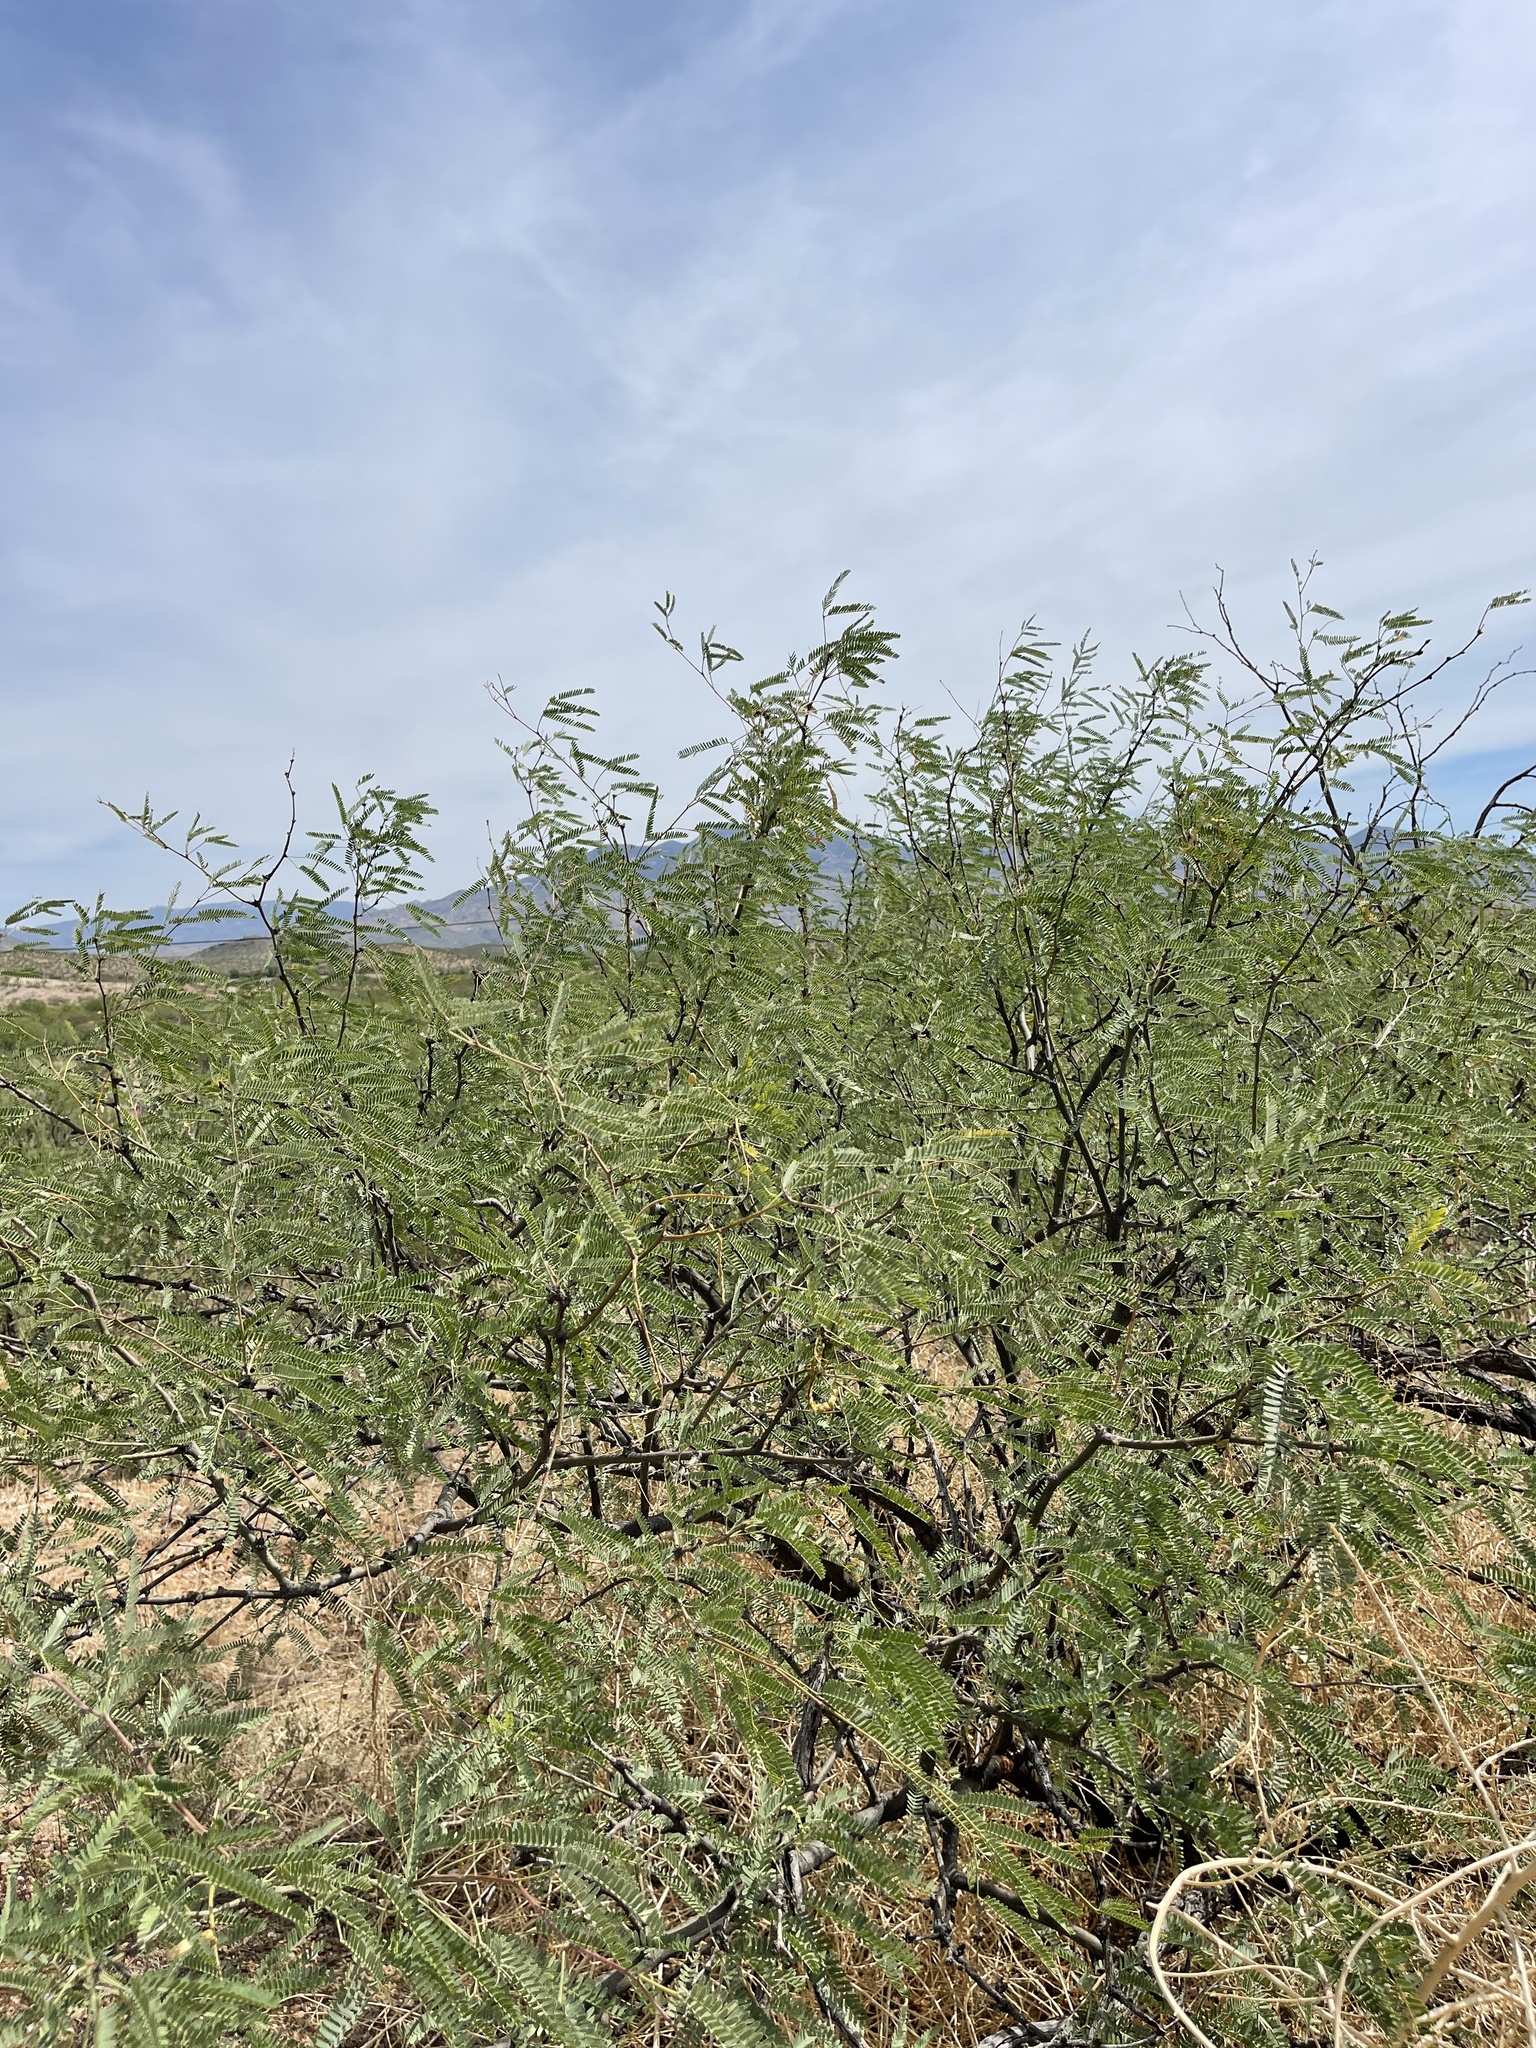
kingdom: Plantae
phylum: Tracheophyta
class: Magnoliopsida
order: Fabales
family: Fabaceae
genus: Prosopis
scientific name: Prosopis velutina
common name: Velvet mesquite
